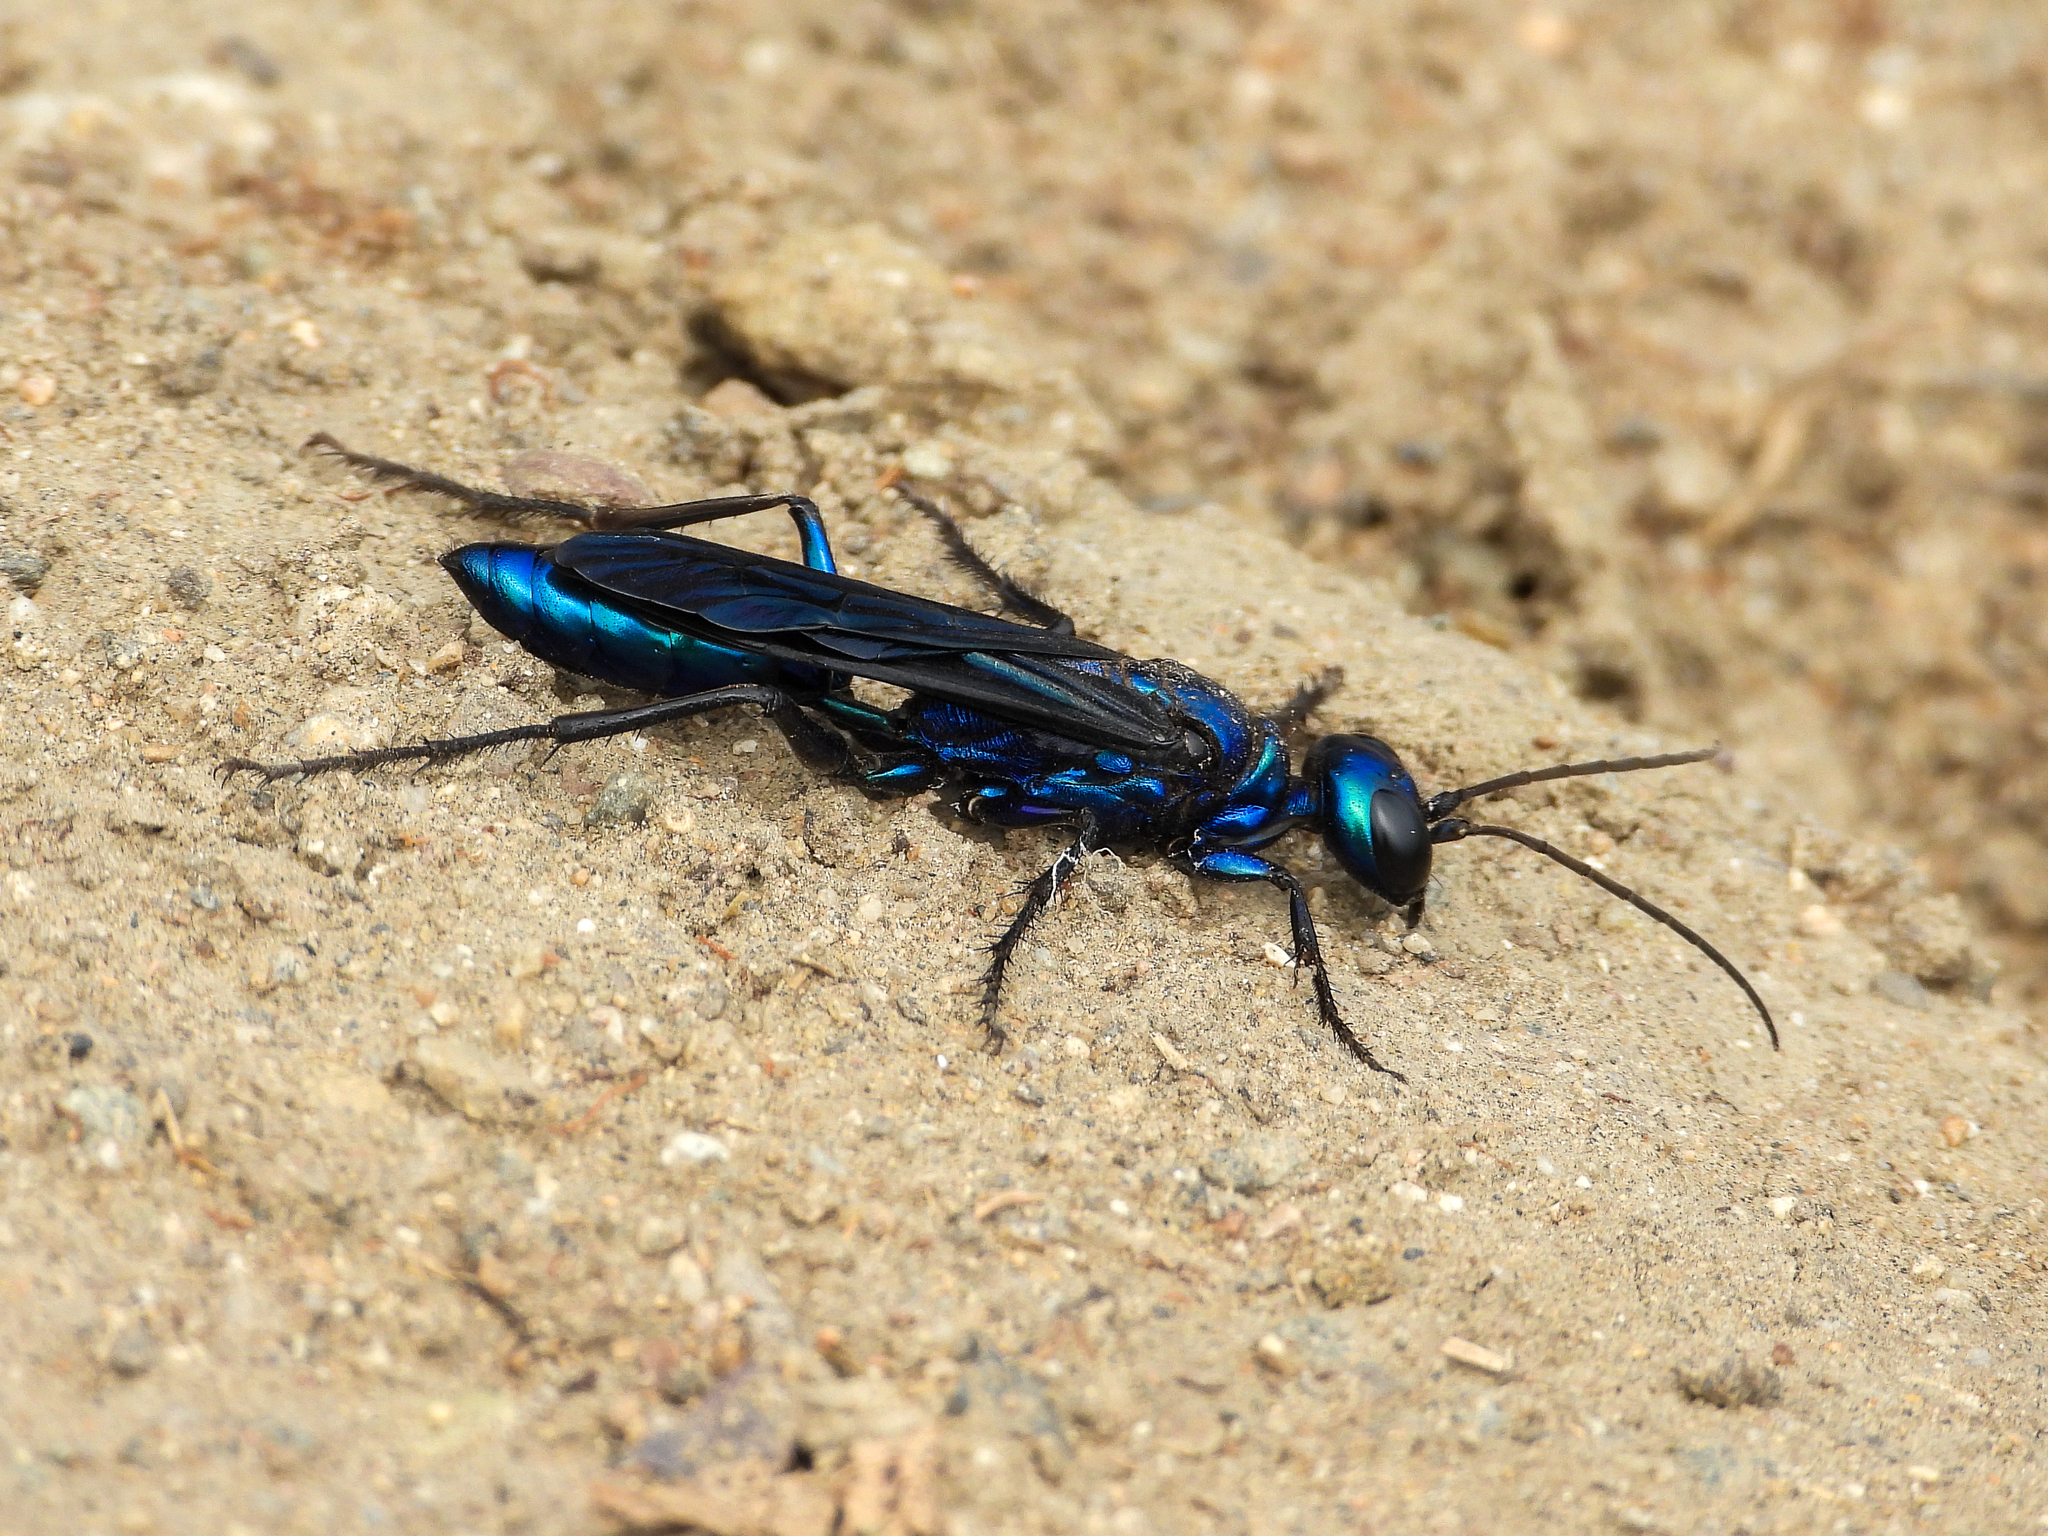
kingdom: Animalia
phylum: Arthropoda
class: Insecta
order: Hymenoptera
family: Sphecidae
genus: Chlorion
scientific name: Chlorion aerarium
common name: Steel-blue cricket hunter
